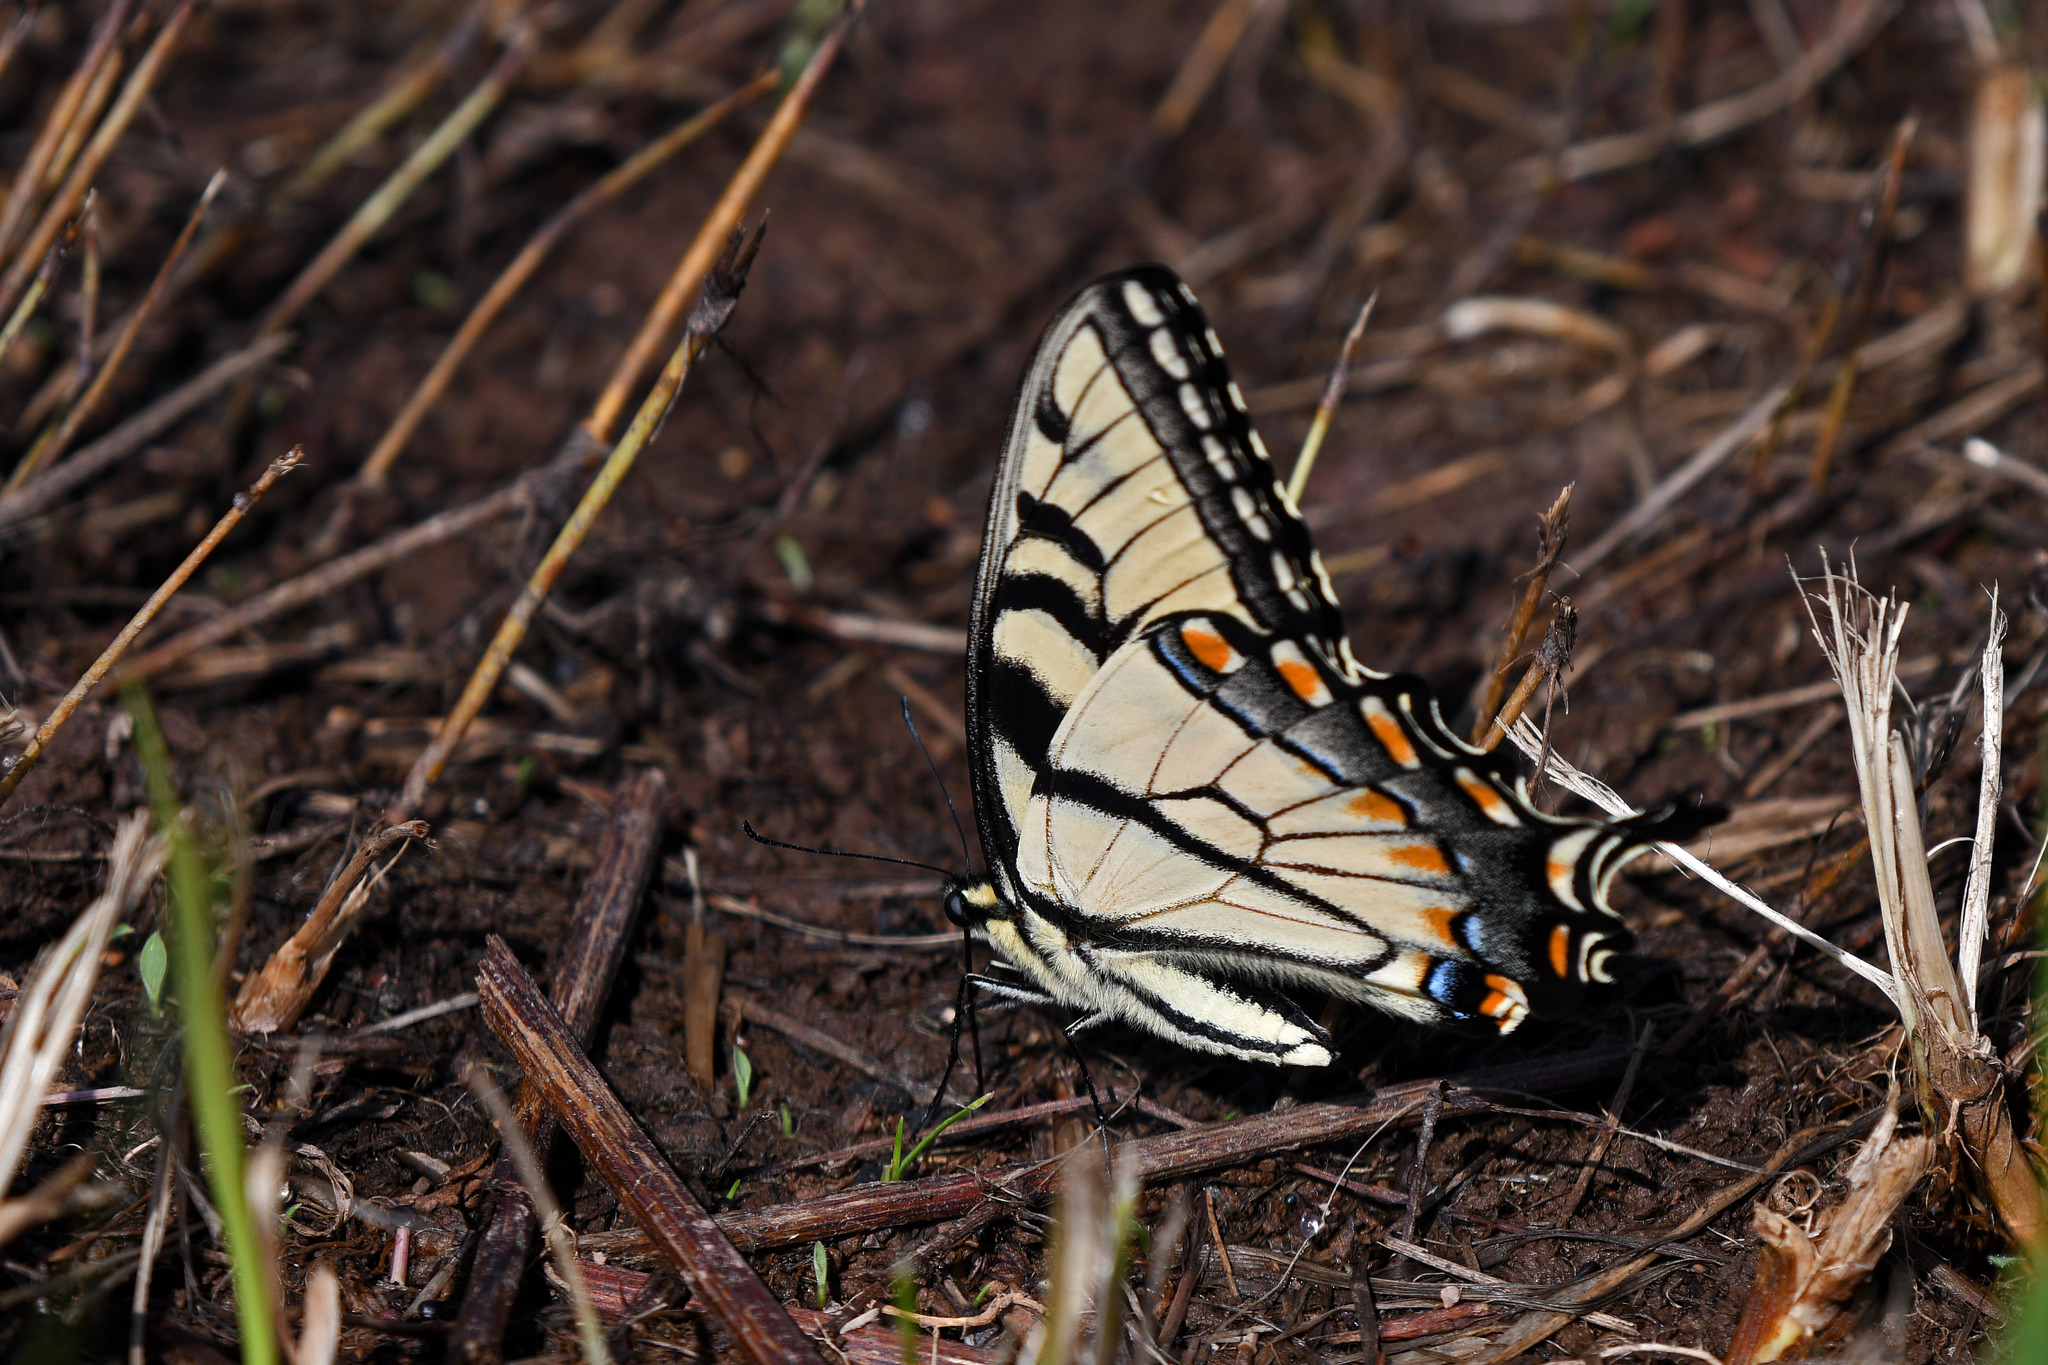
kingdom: Animalia
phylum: Arthropoda
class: Insecta
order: Lepidoptera
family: Papilionidae
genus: Papilio
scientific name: Papilio glaucus
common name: Tiger swallowtail
